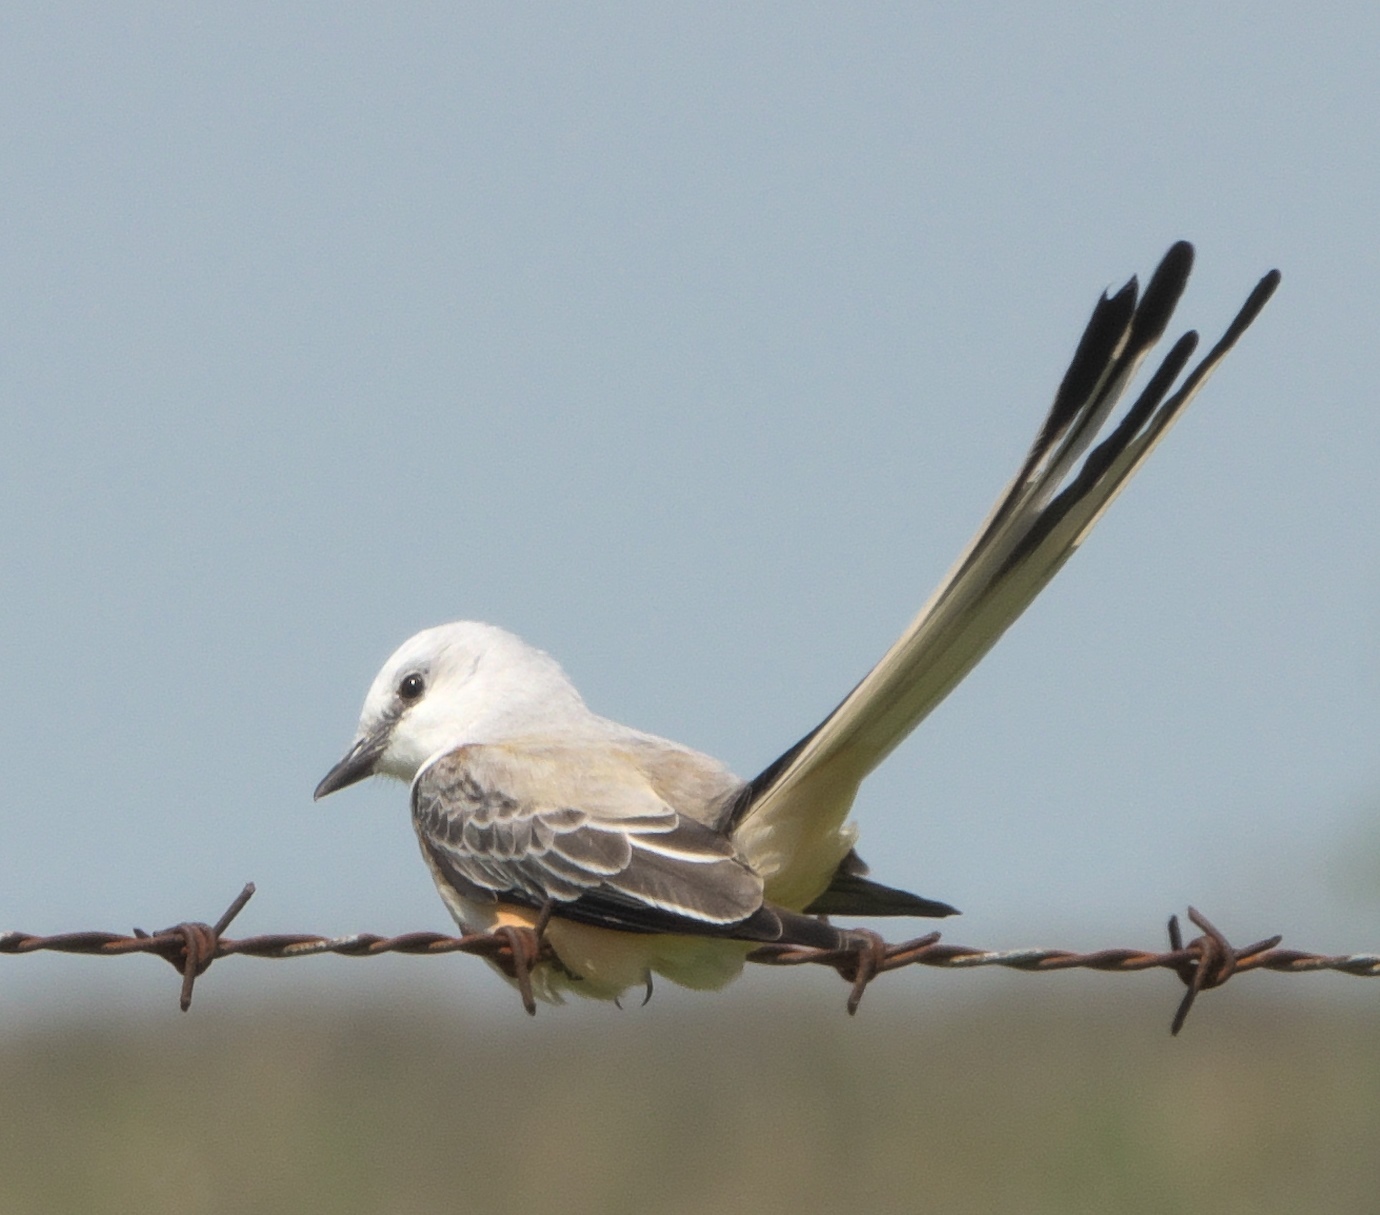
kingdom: Animalia
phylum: Chordata
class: Aves
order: Passeriformes
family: Tyrannidae
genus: Tyrannus
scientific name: Tyrannus forficatus
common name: Scissor-tailed flycatcher
